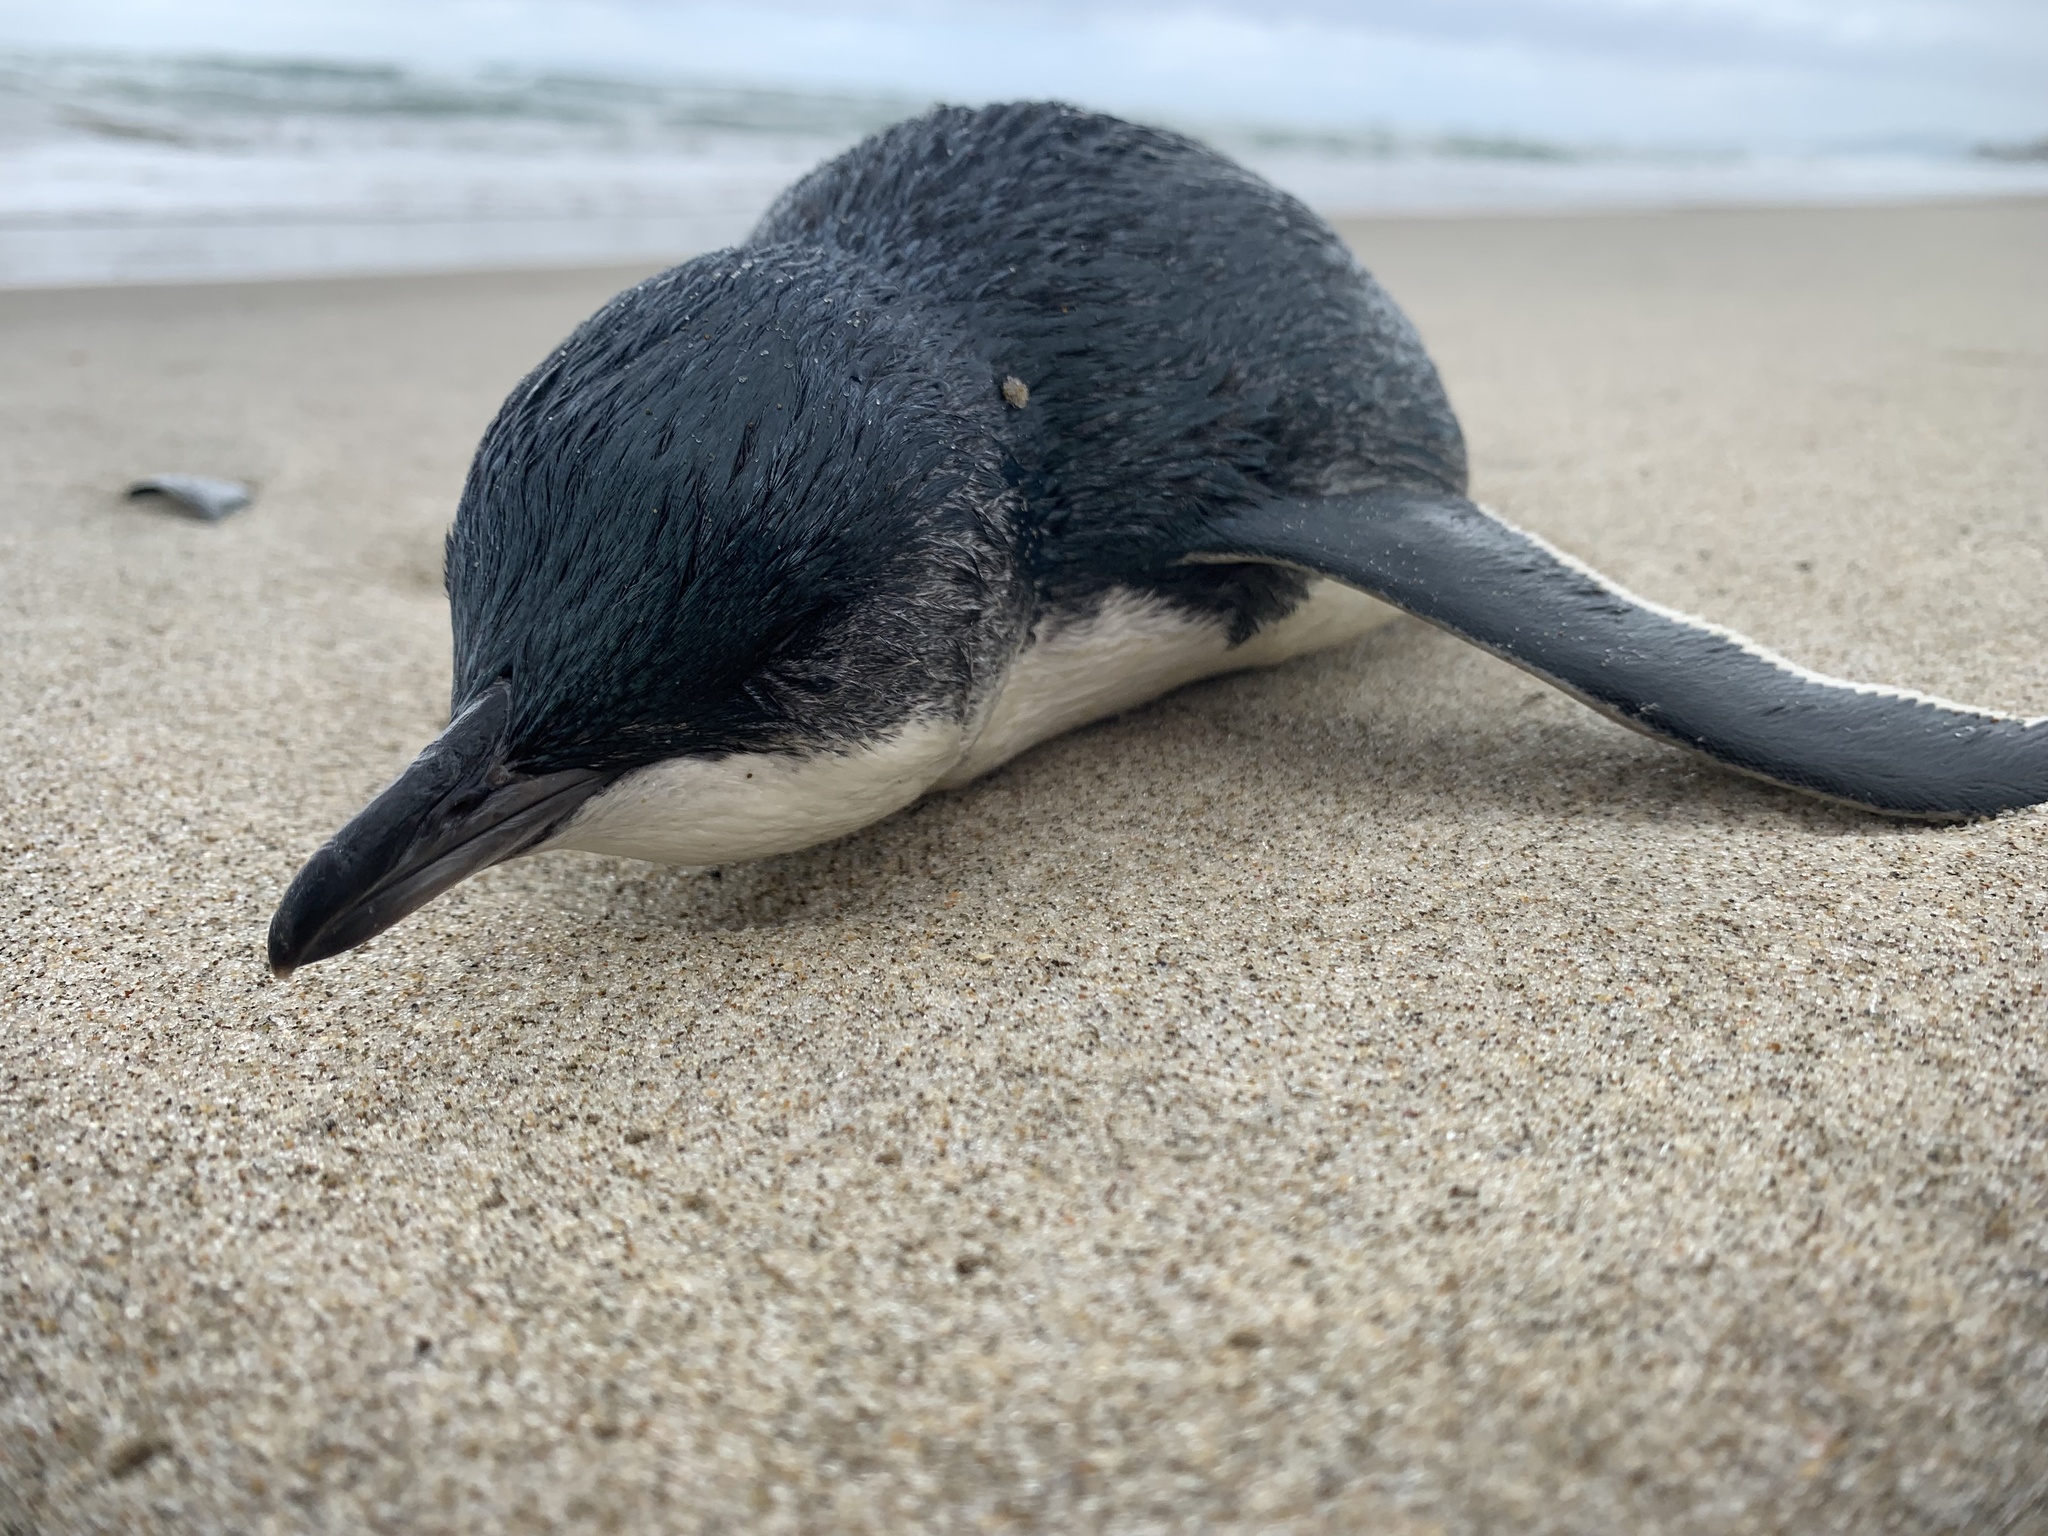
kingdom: Animalia
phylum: Chordata
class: Aves
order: Sphenisciformes
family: Spheniscidae
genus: Eudyptula
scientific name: Eudyptula minor
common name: Little penguin
